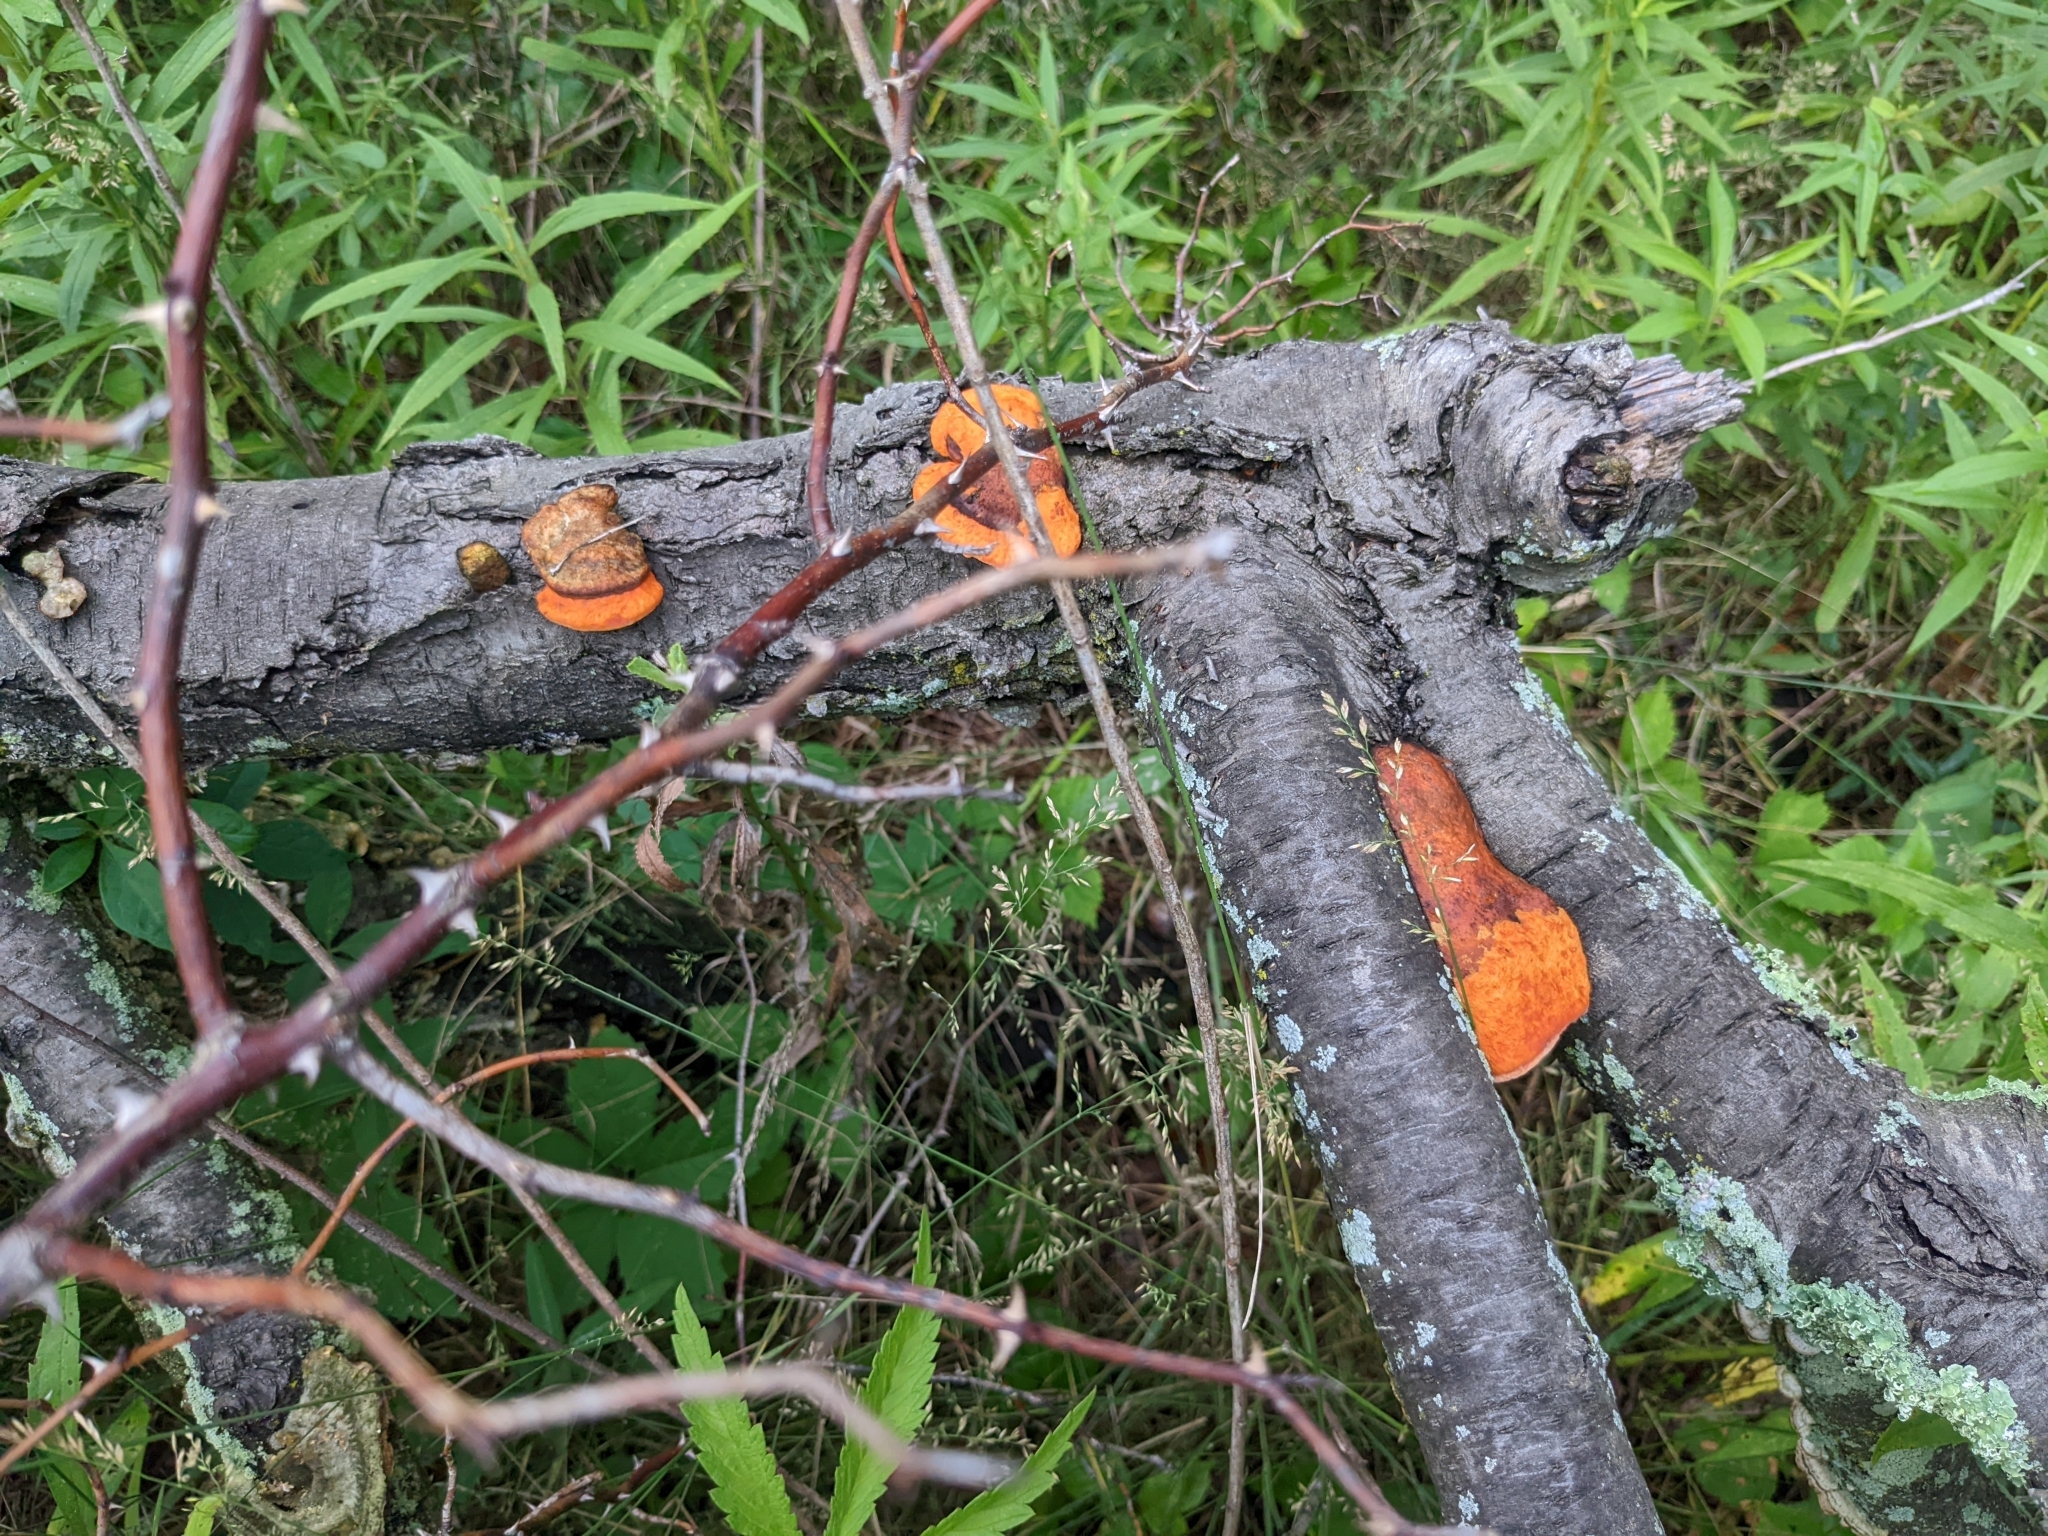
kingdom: Fungi
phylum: Basidiomycota
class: Agaricomycetes
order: Polyporales
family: Polyporaceae
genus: Trametes
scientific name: Trametes cinnabarina
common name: Northern cinnabar polypore
